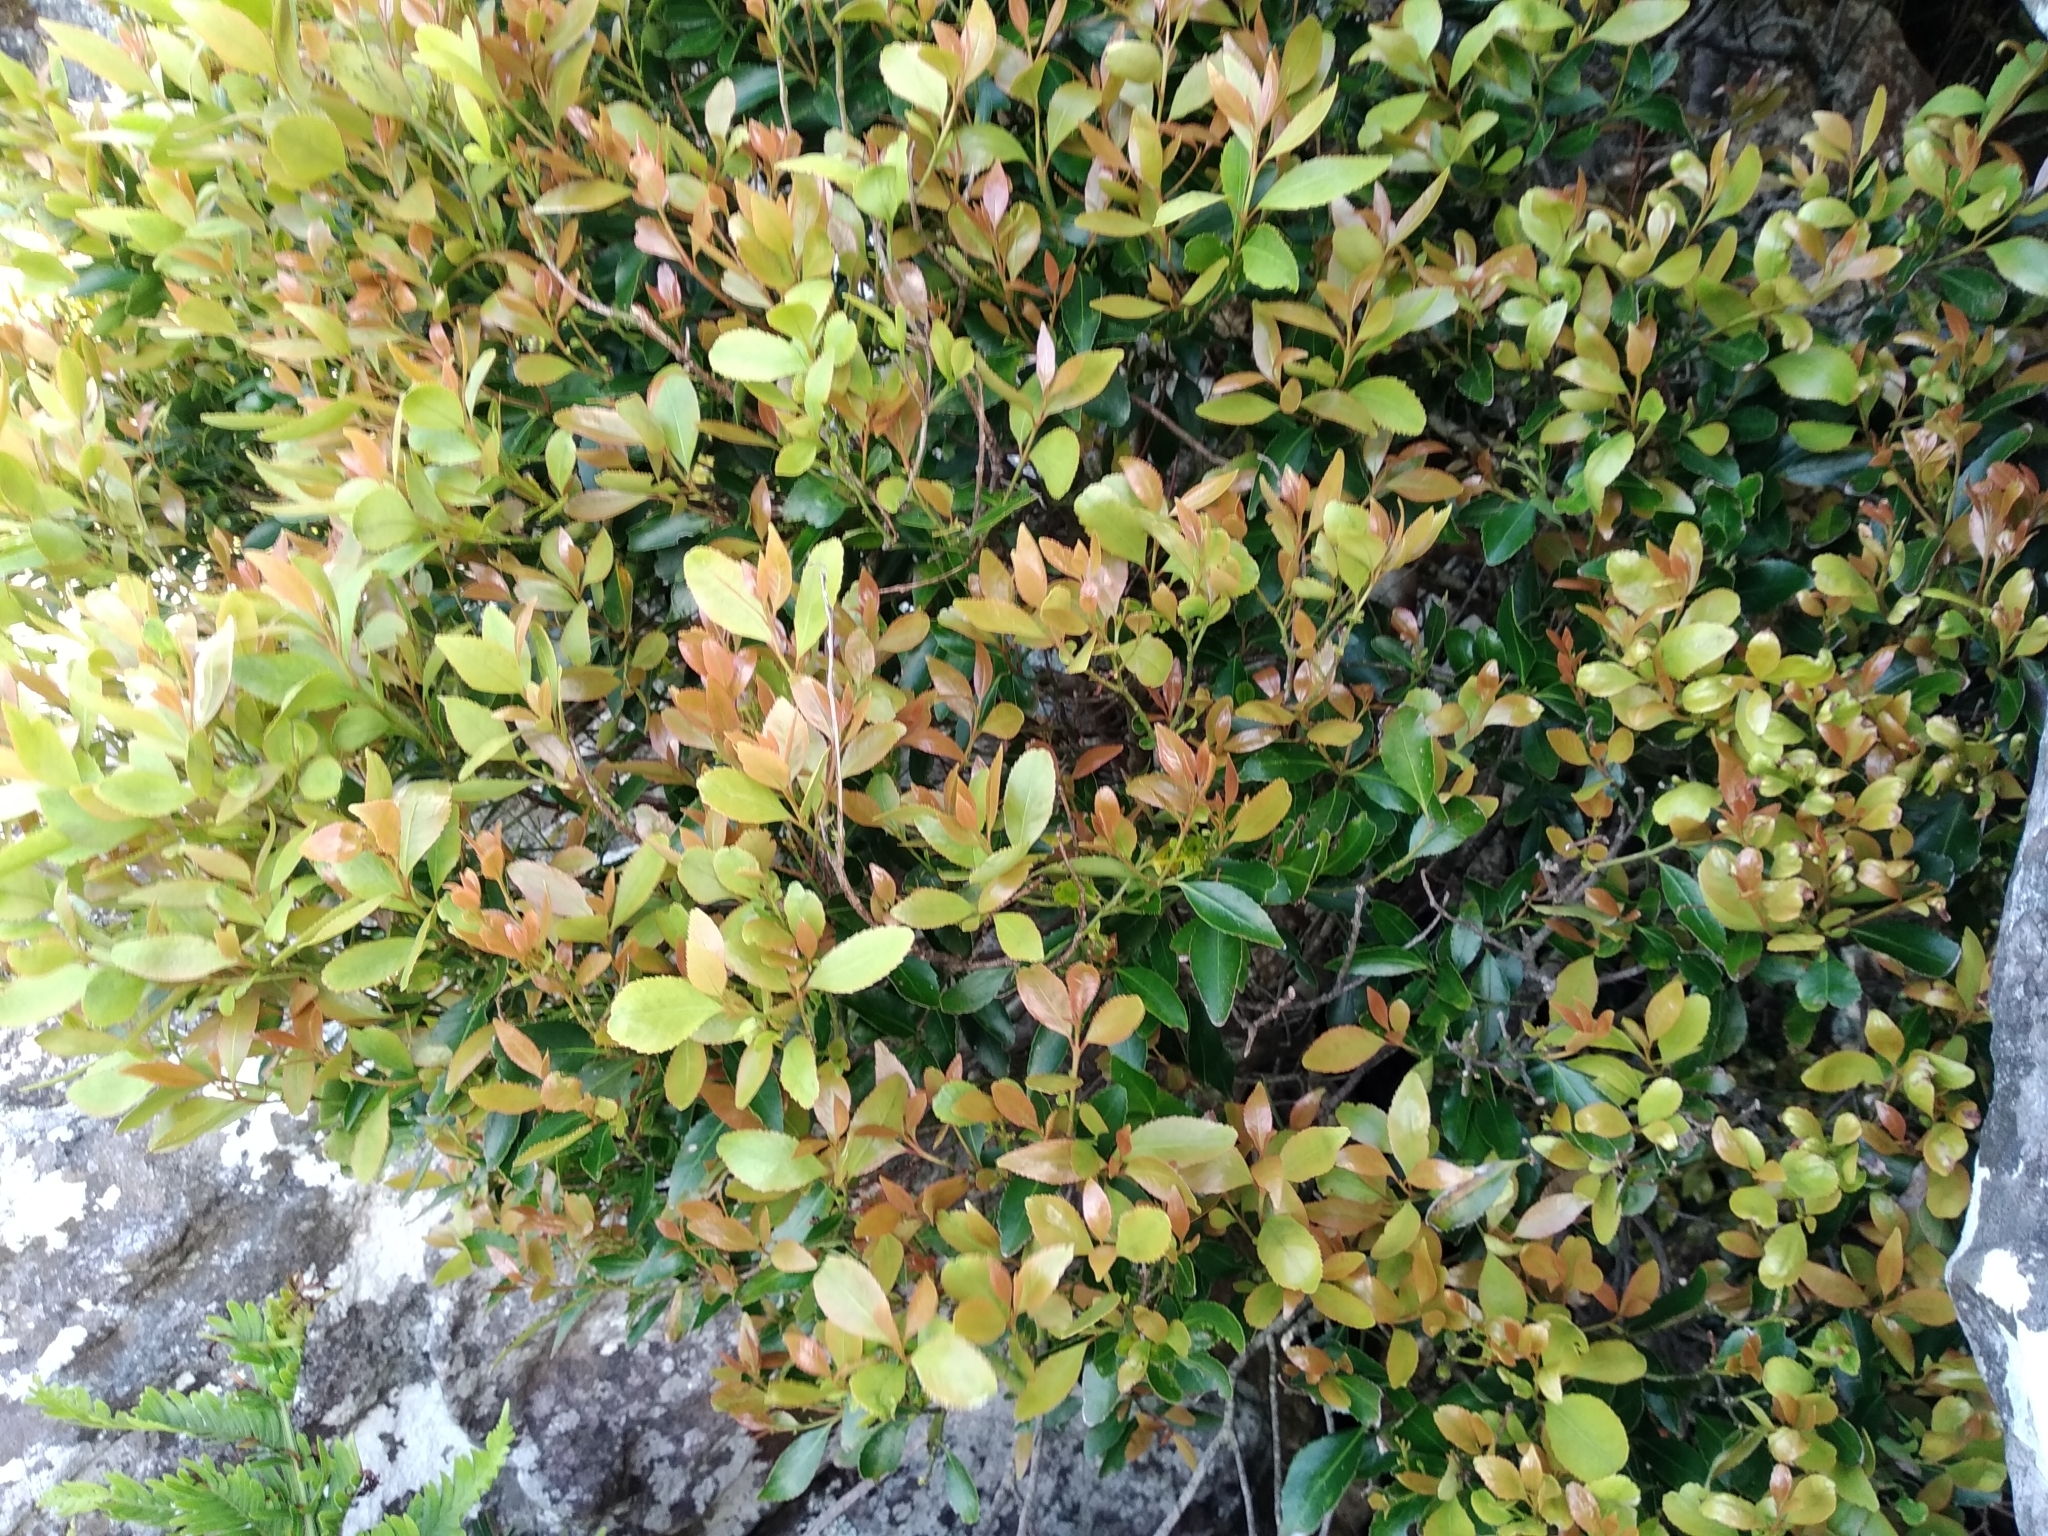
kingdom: Plantae
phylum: Tracheophyta
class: Magnoliopsida
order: Celastrales
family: Celastraceae
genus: Elaeodendron
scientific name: Elaeodendron schinoides
